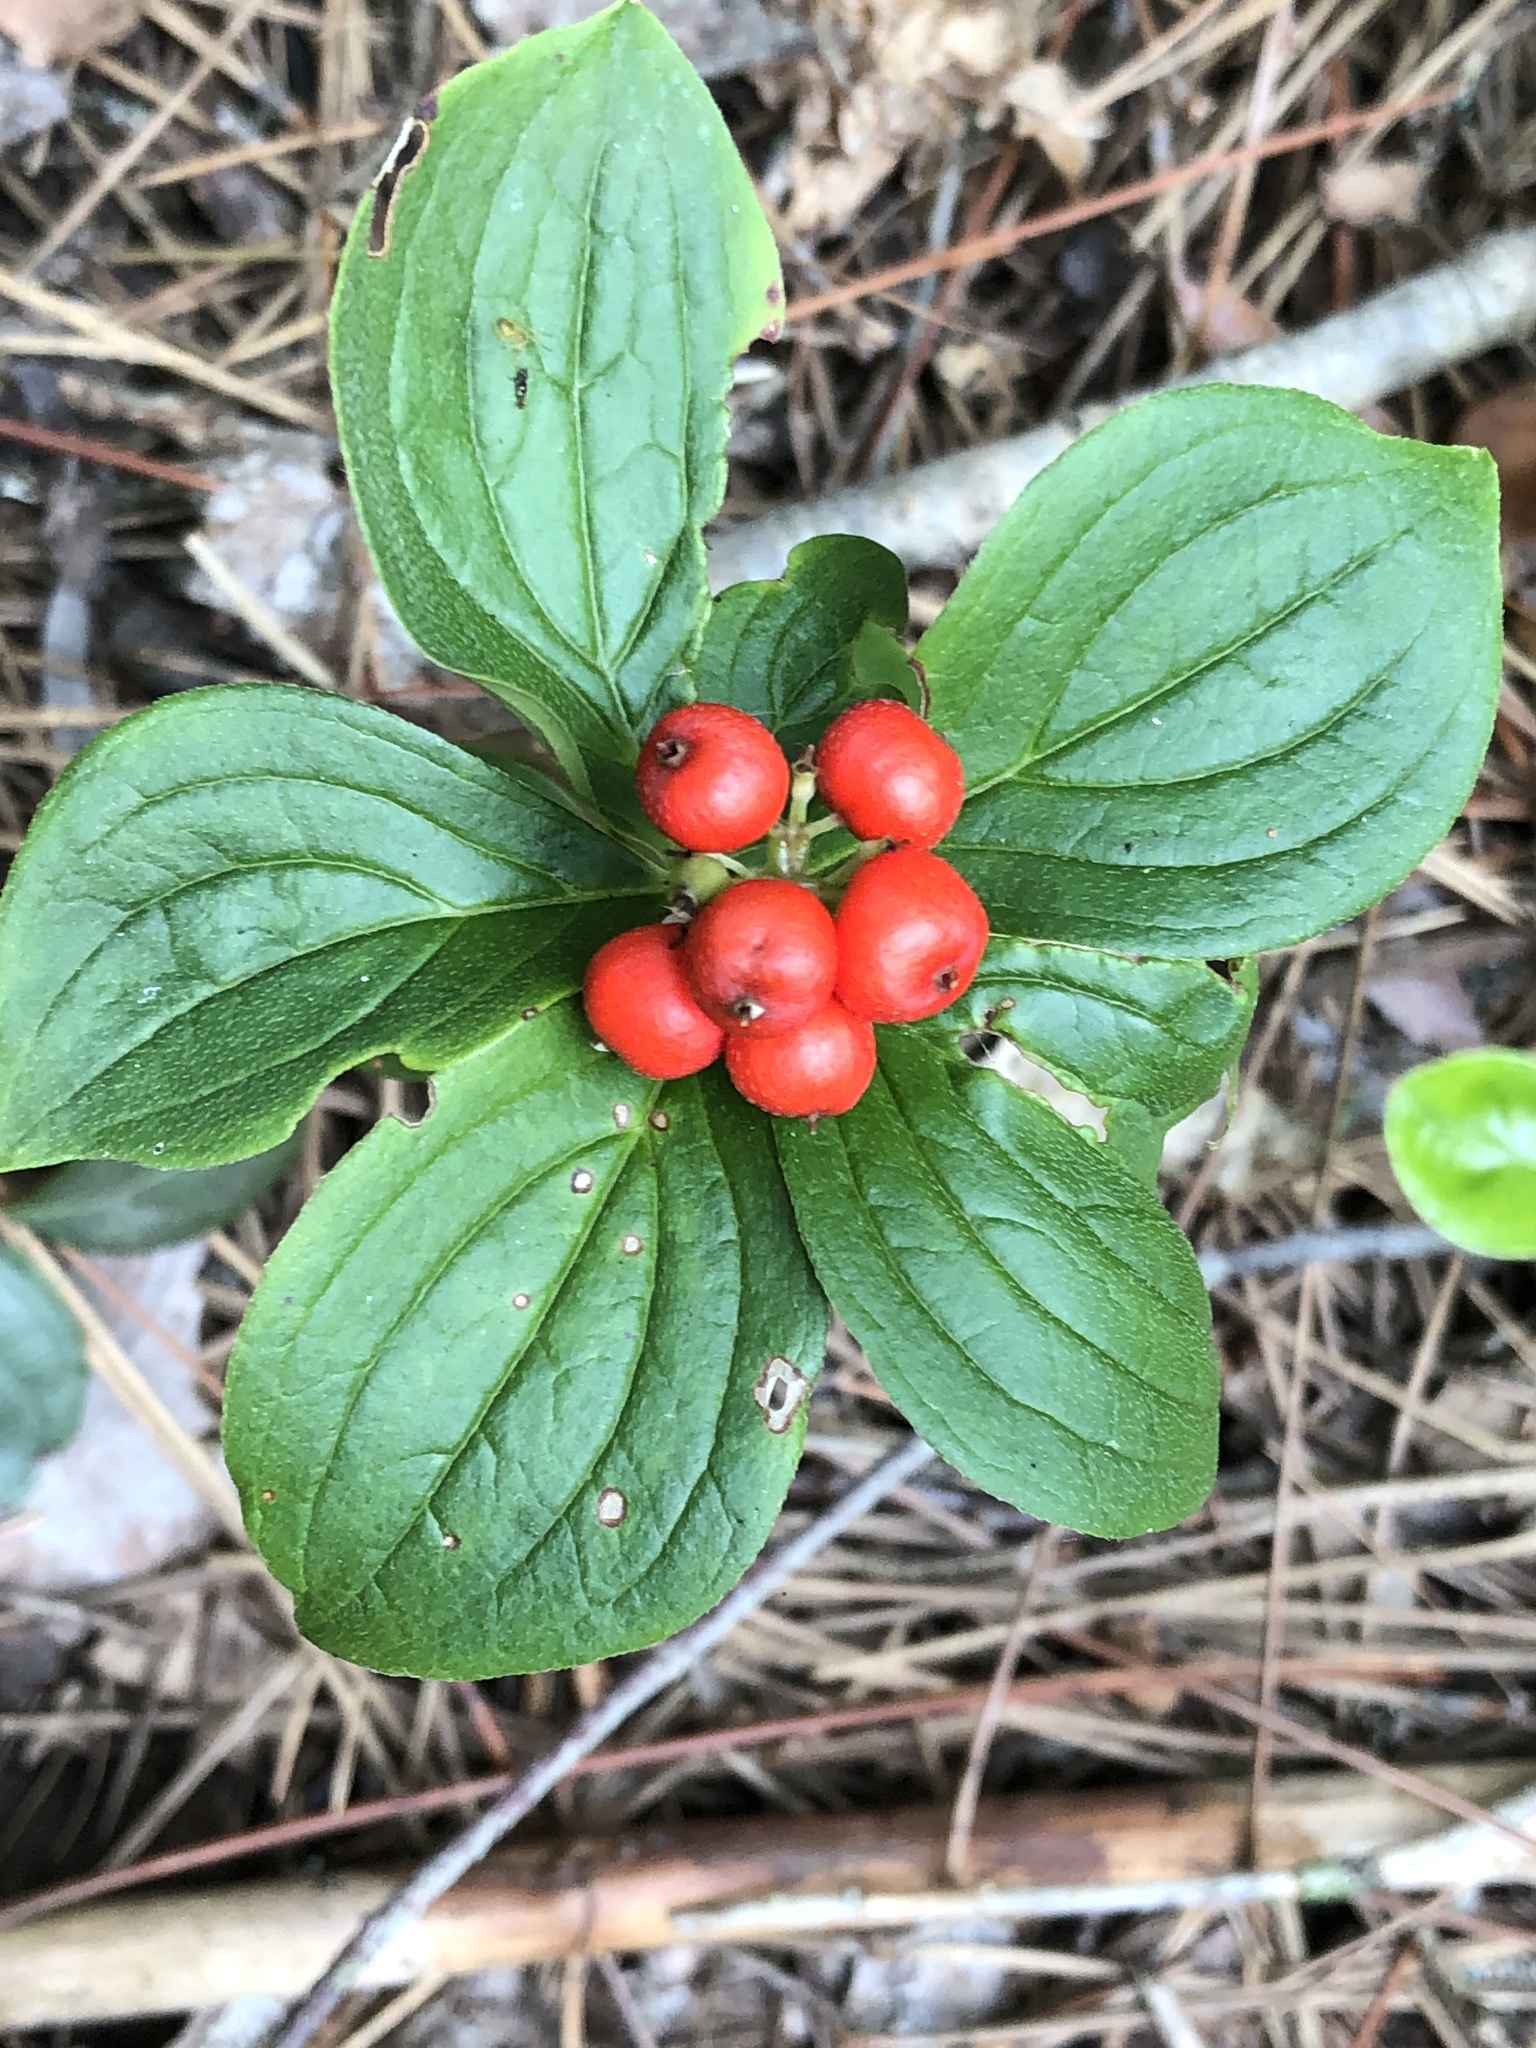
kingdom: Plantae
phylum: Tracheophyta
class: Magnoliopsida
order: Cornales
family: Cornaceae
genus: Cornus
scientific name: Cornus canadensis
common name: Creeping dogwood
